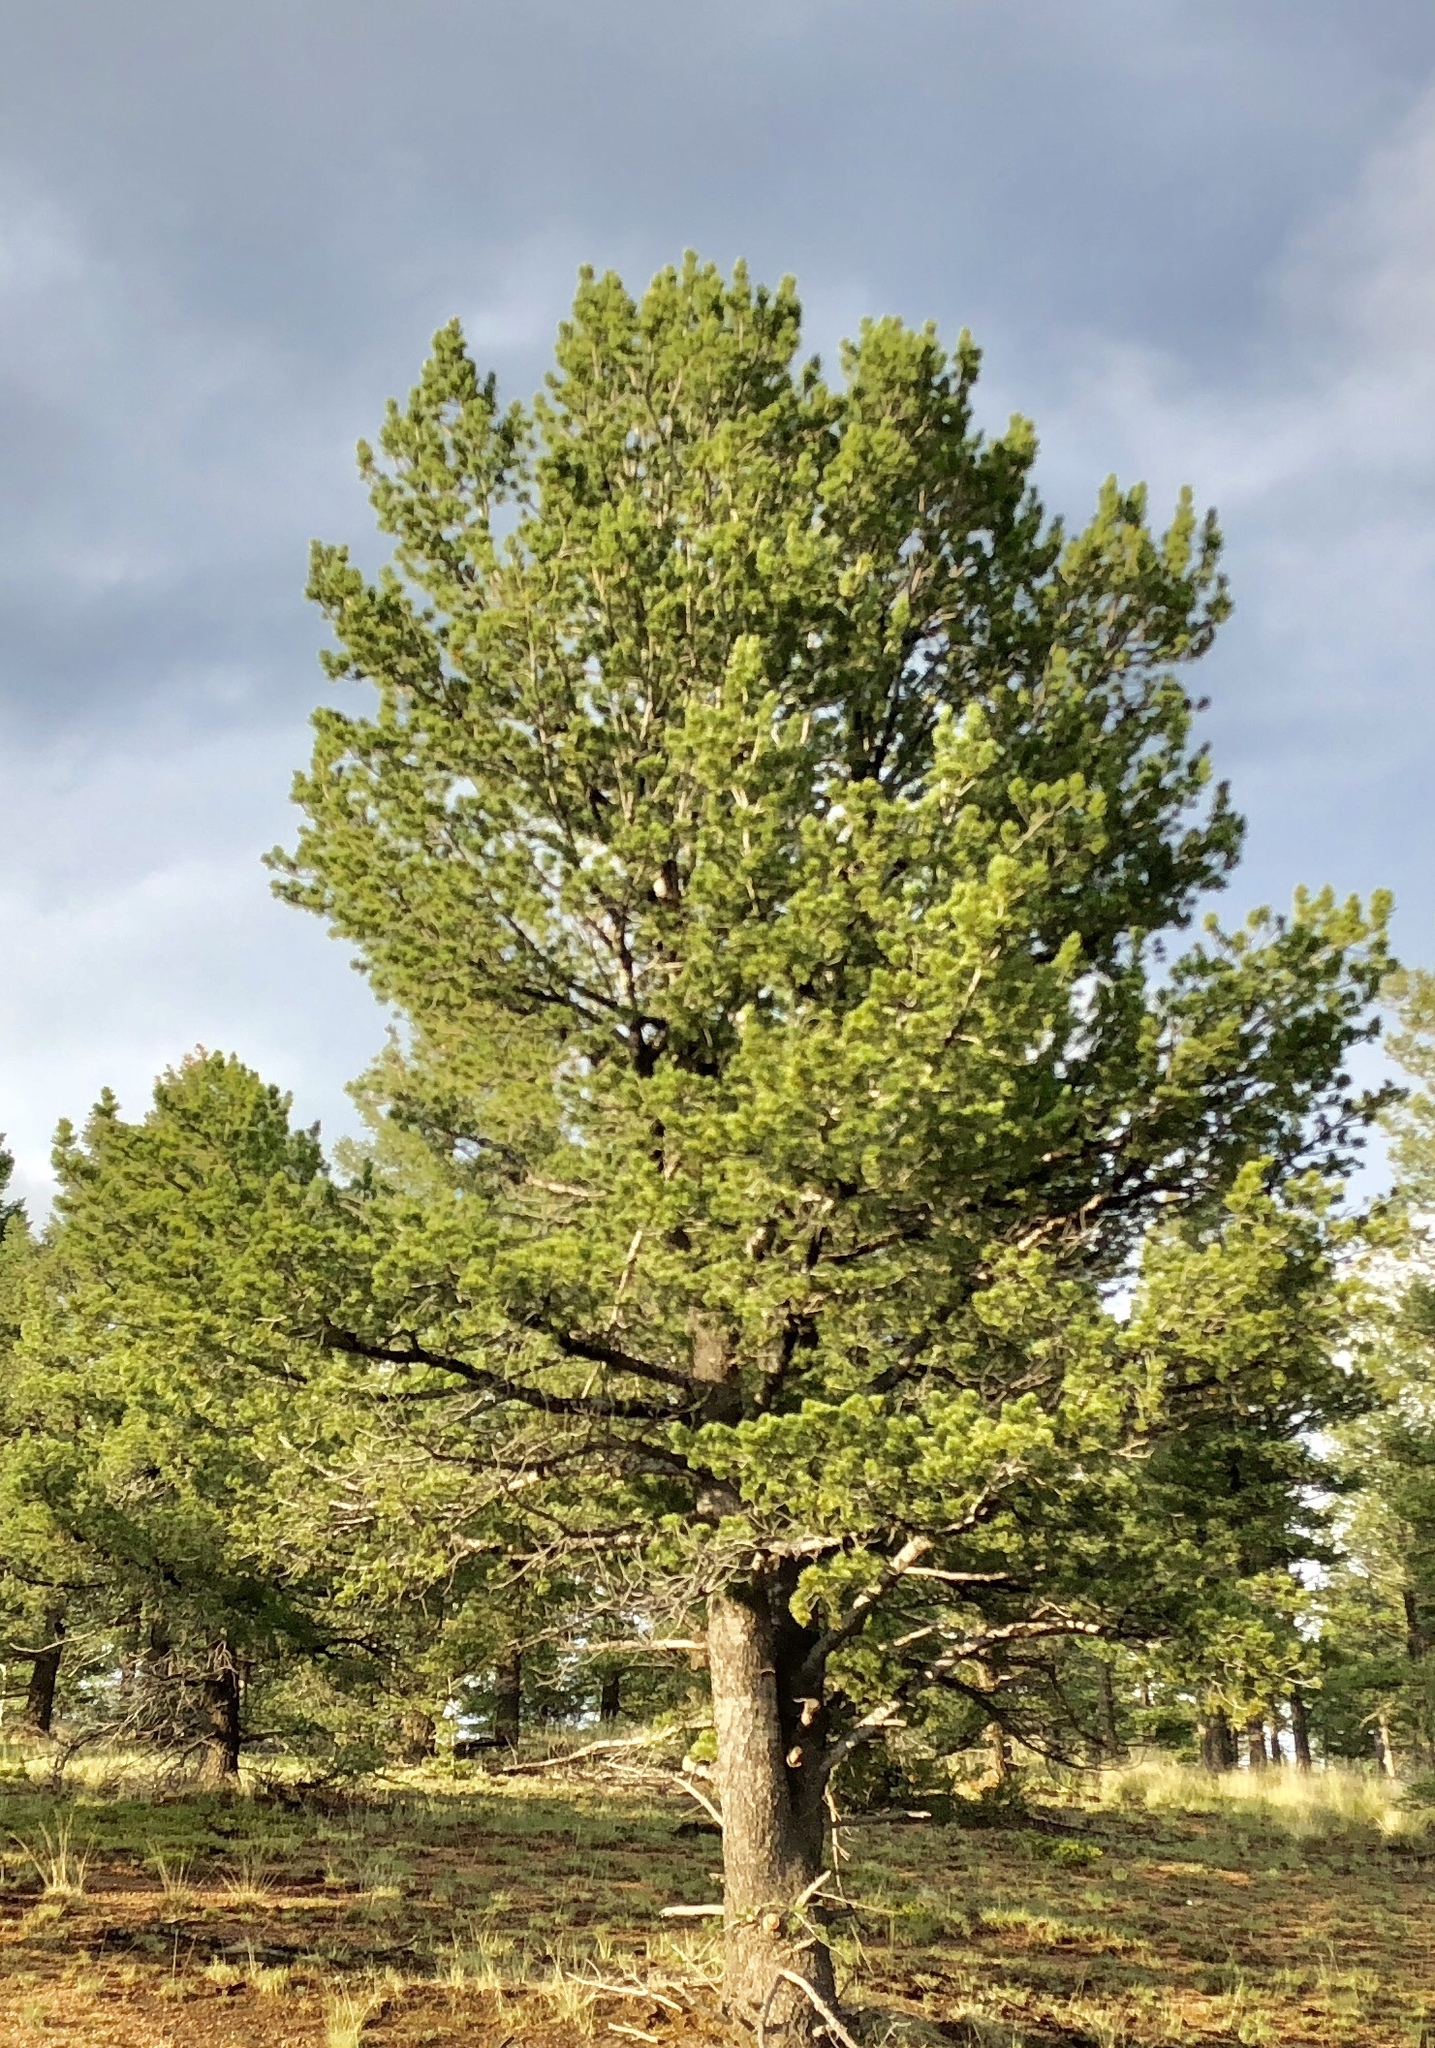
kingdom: Plantae
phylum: Tracheophyta
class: Pinopsida
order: Pinales
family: Pinaceae
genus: Pinus
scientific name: Pinus flexilis
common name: Limber pine
